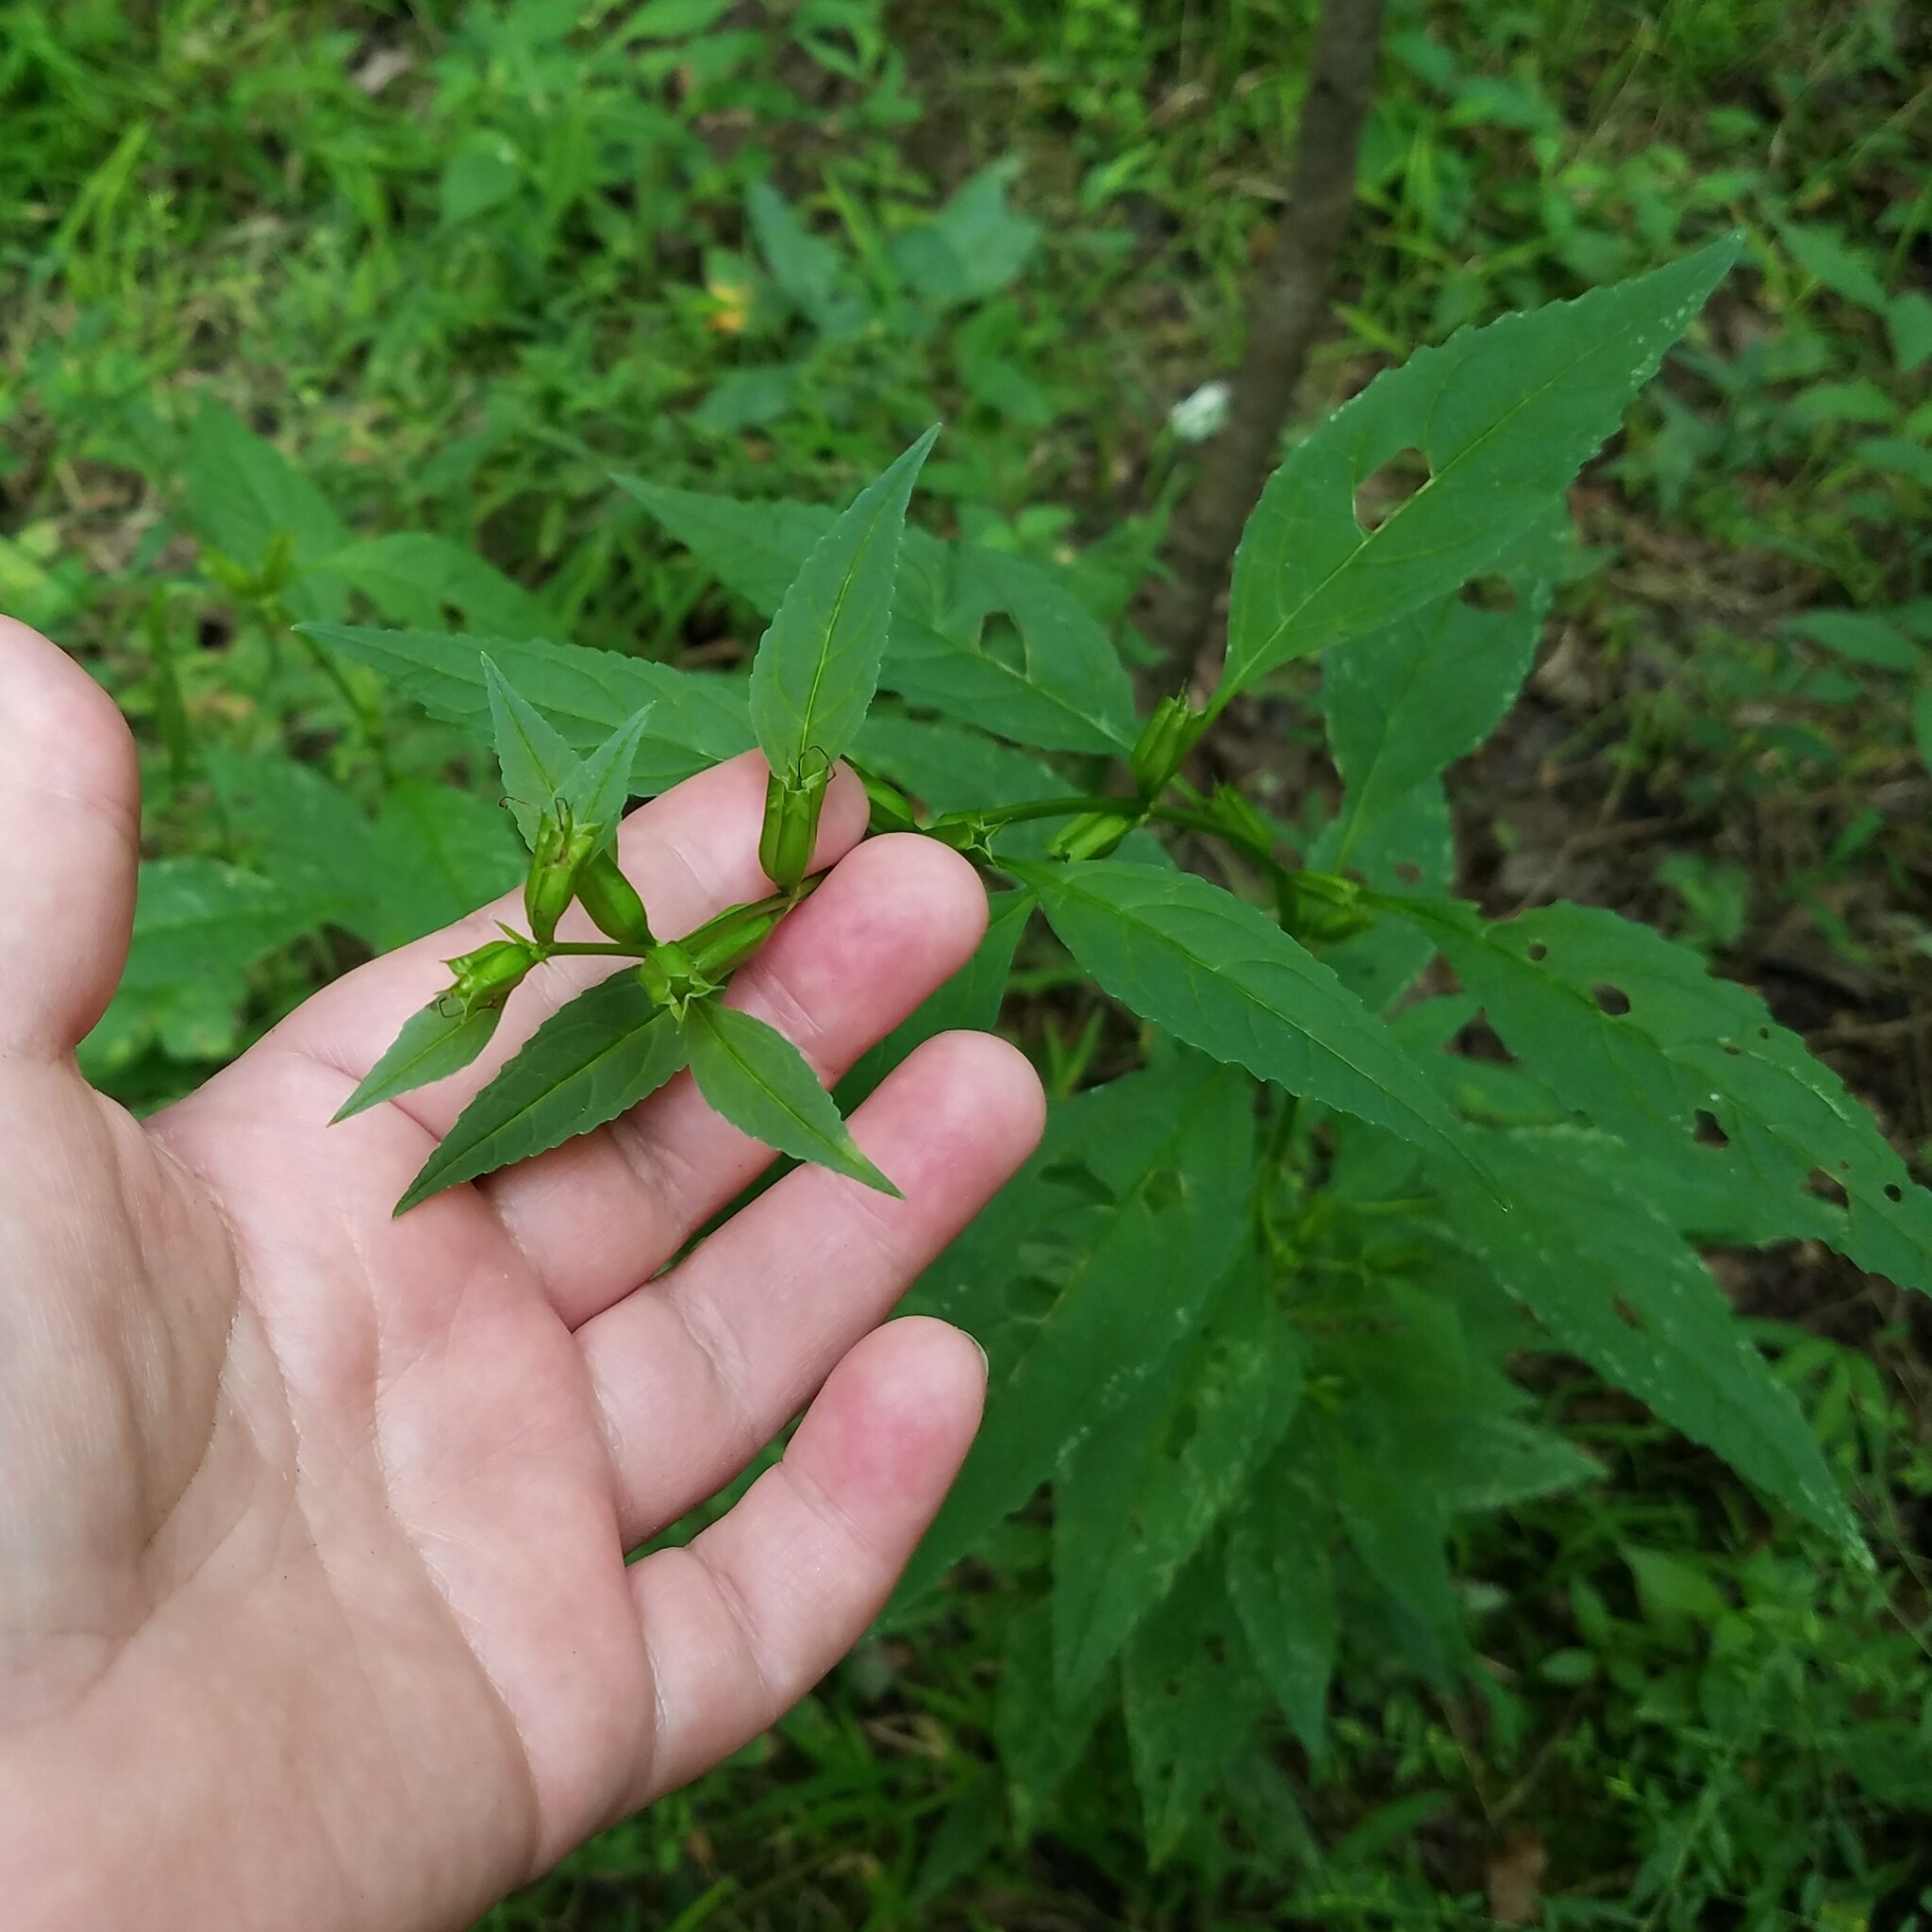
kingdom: Plantae
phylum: Tracheophyta
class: Magnoliopsida
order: Lamiales
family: Phrymaceae
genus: Mimulus
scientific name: Mimulus alatus
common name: Sharp-wing monkey-flower
